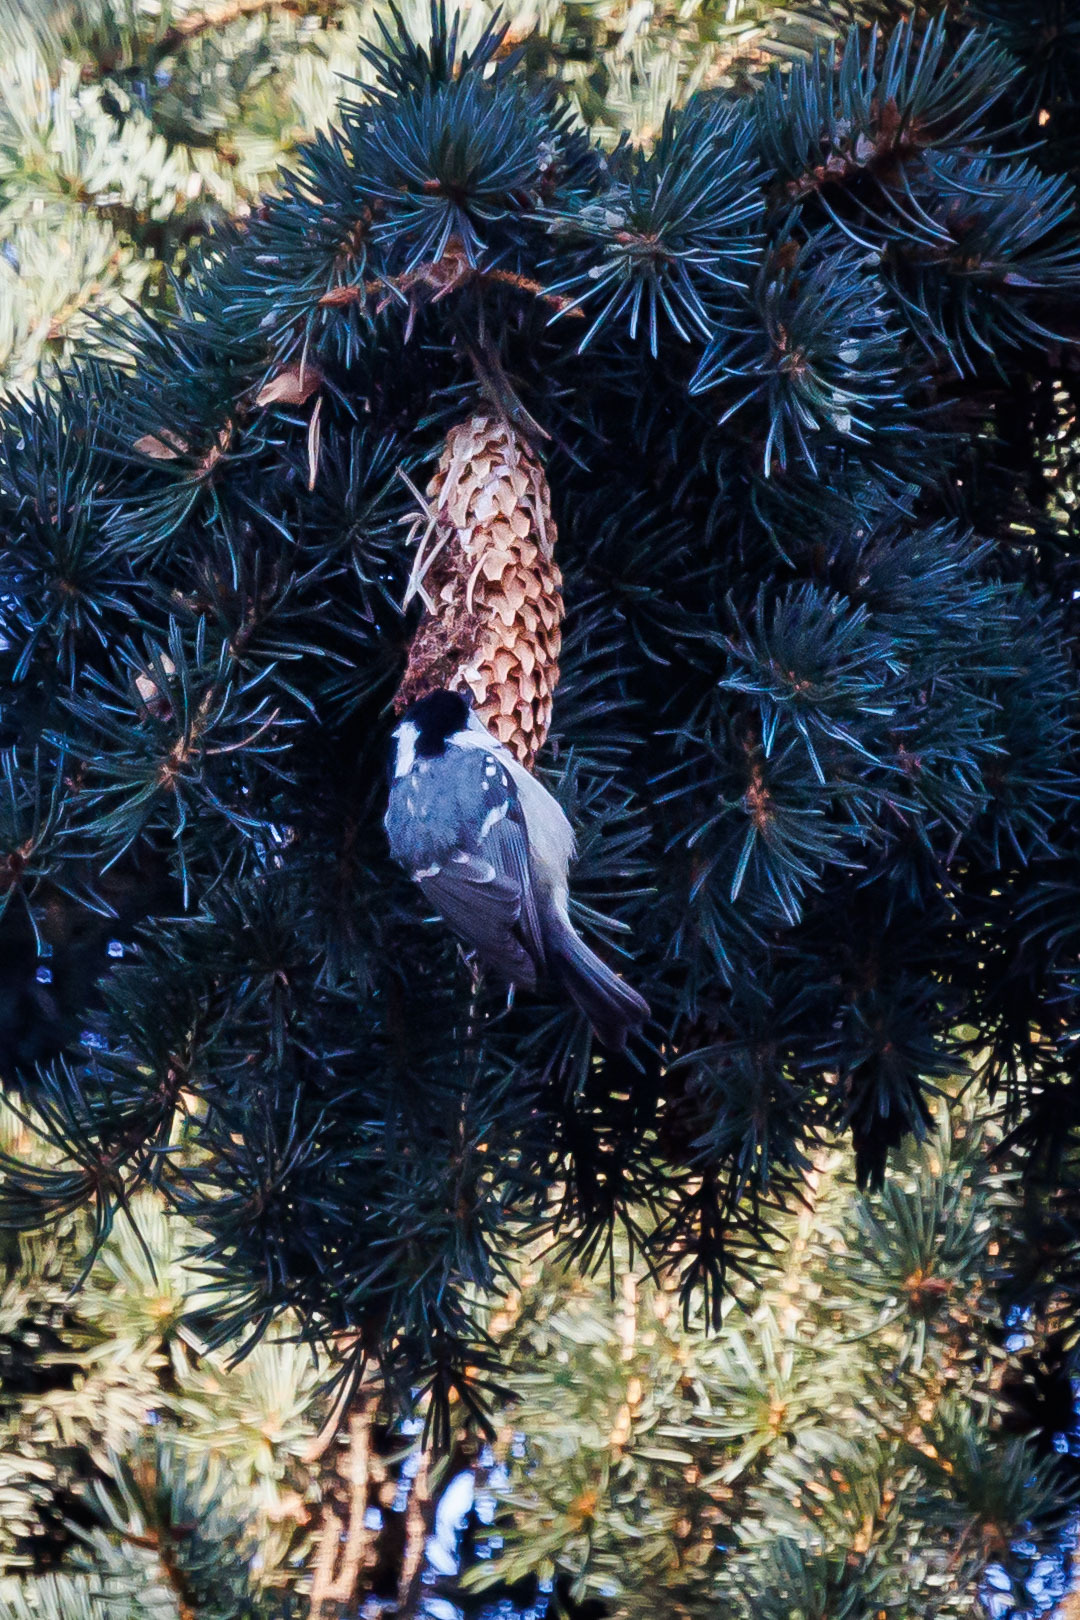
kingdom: Animalia
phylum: Chordata
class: Aves
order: Passeriformes
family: Paridae
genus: Periparus
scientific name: Periparus ater
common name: Coal tit
